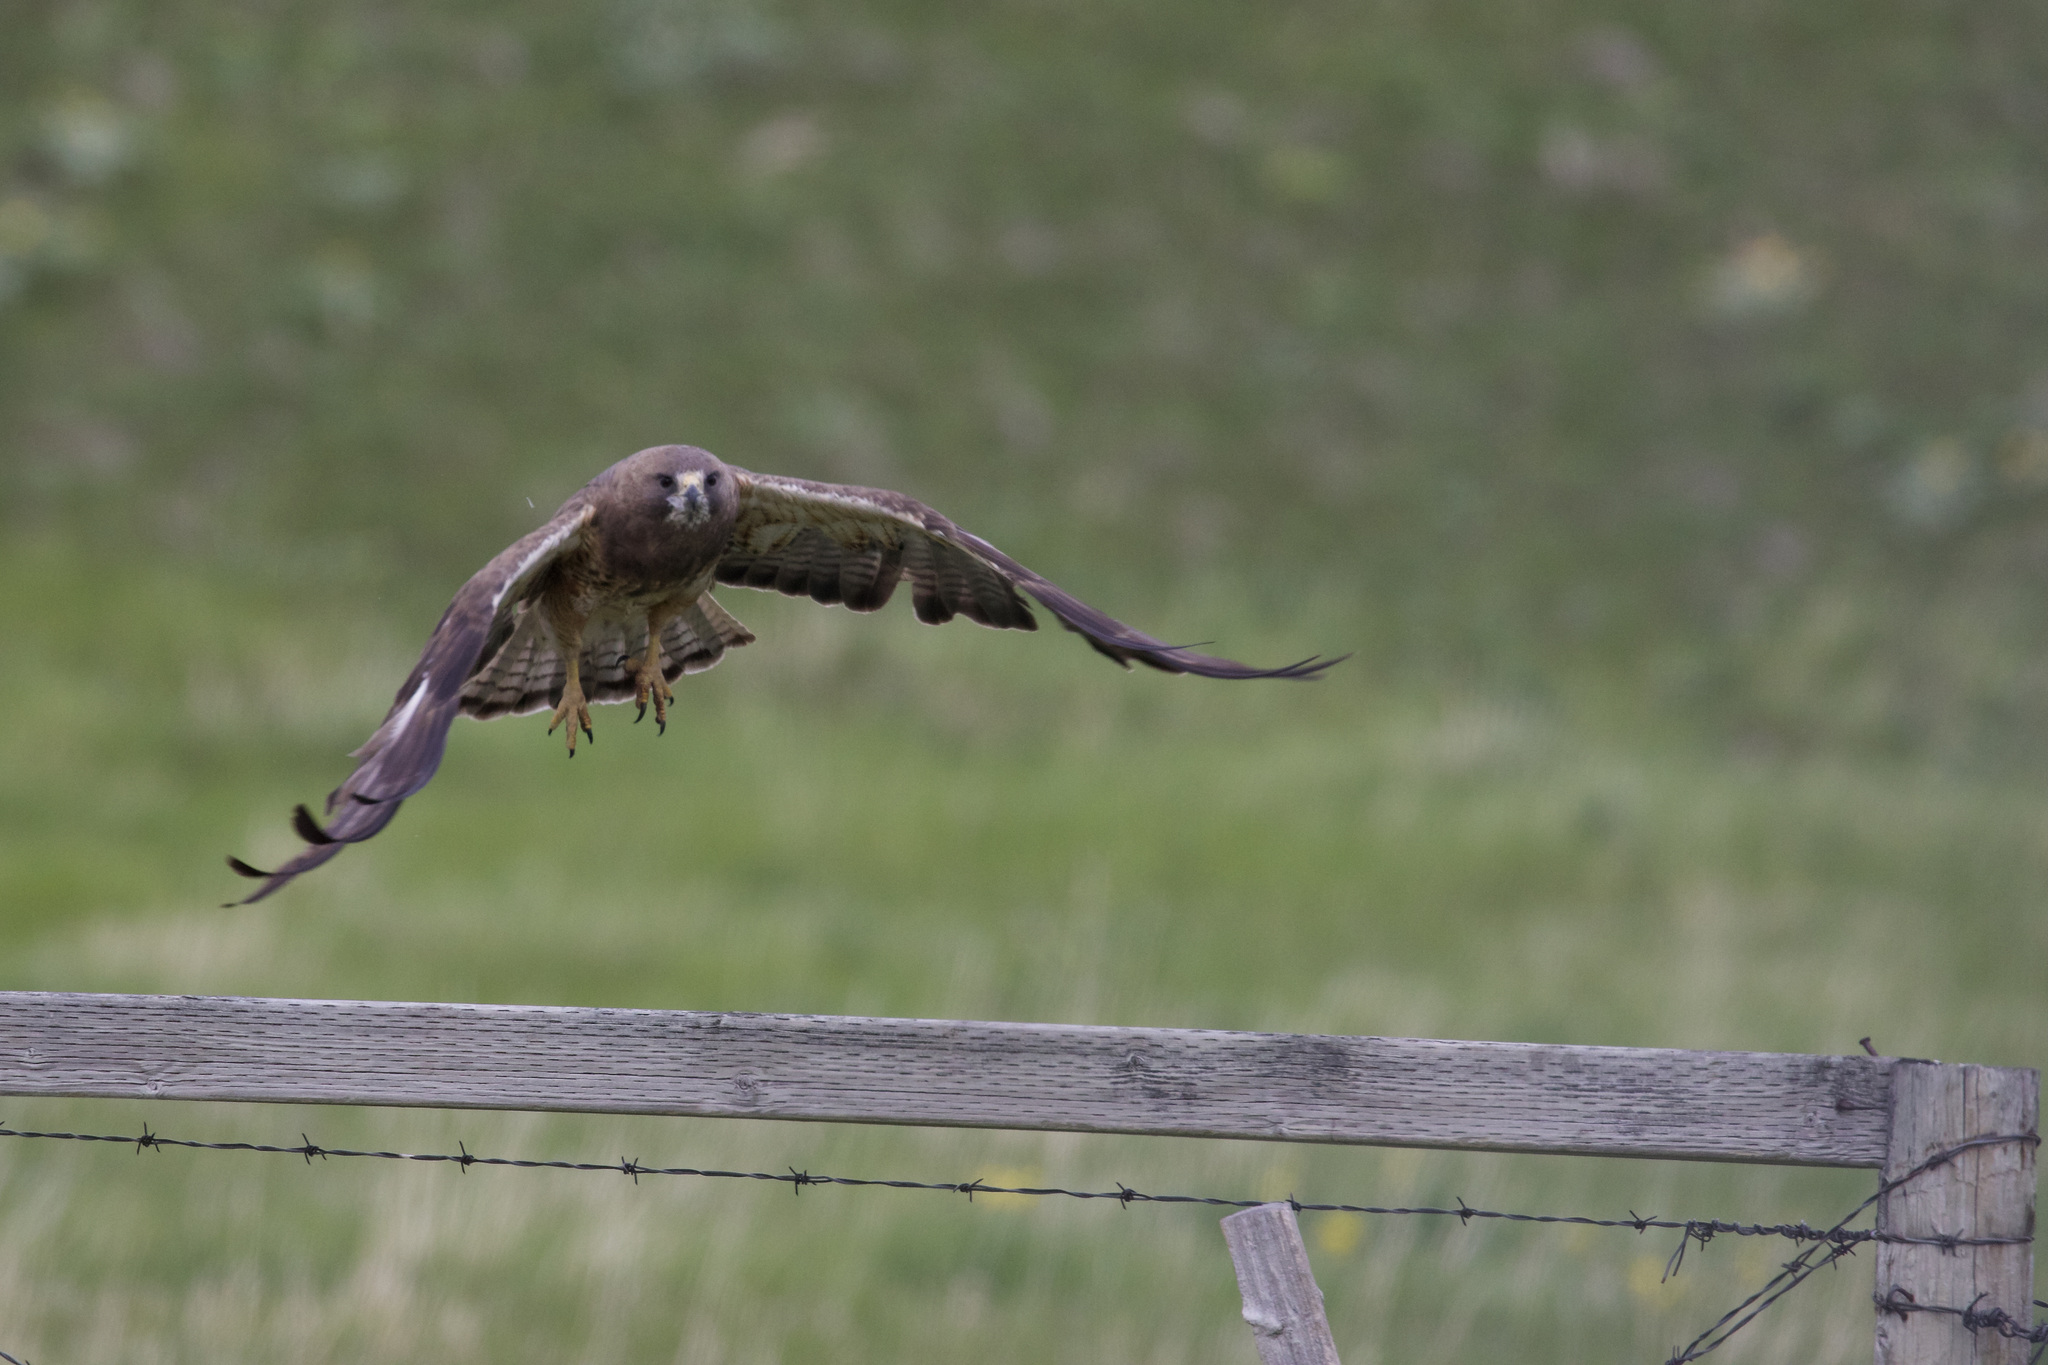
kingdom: Animalia
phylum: Chordata
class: Aves
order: Accipitriformes
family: Accipitridae
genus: Buteo
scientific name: Buteo swainsoni
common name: Swainson's hawk
